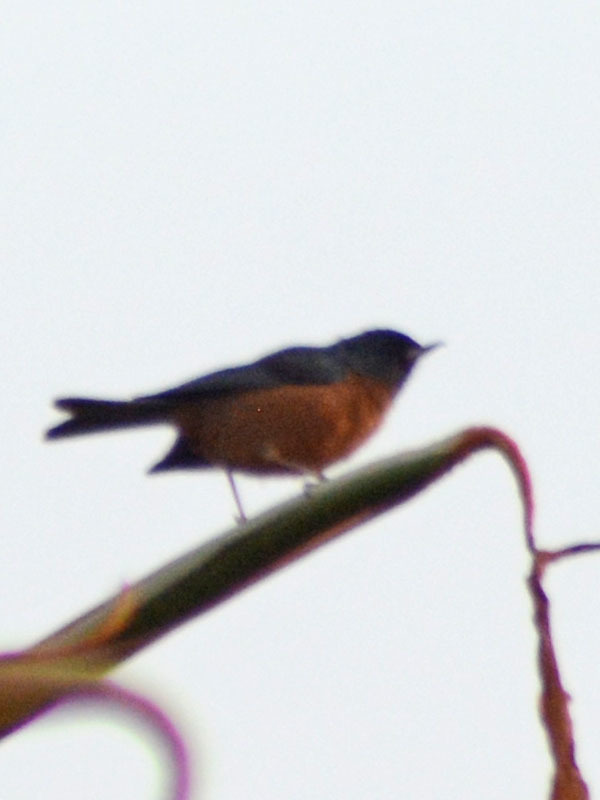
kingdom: Animalia
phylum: Chordata
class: Aves
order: Passeriformes
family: Thraupidae
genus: Diglossa
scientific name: Diglossa baritula
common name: Cinnamon-bellied flowerpiercer
